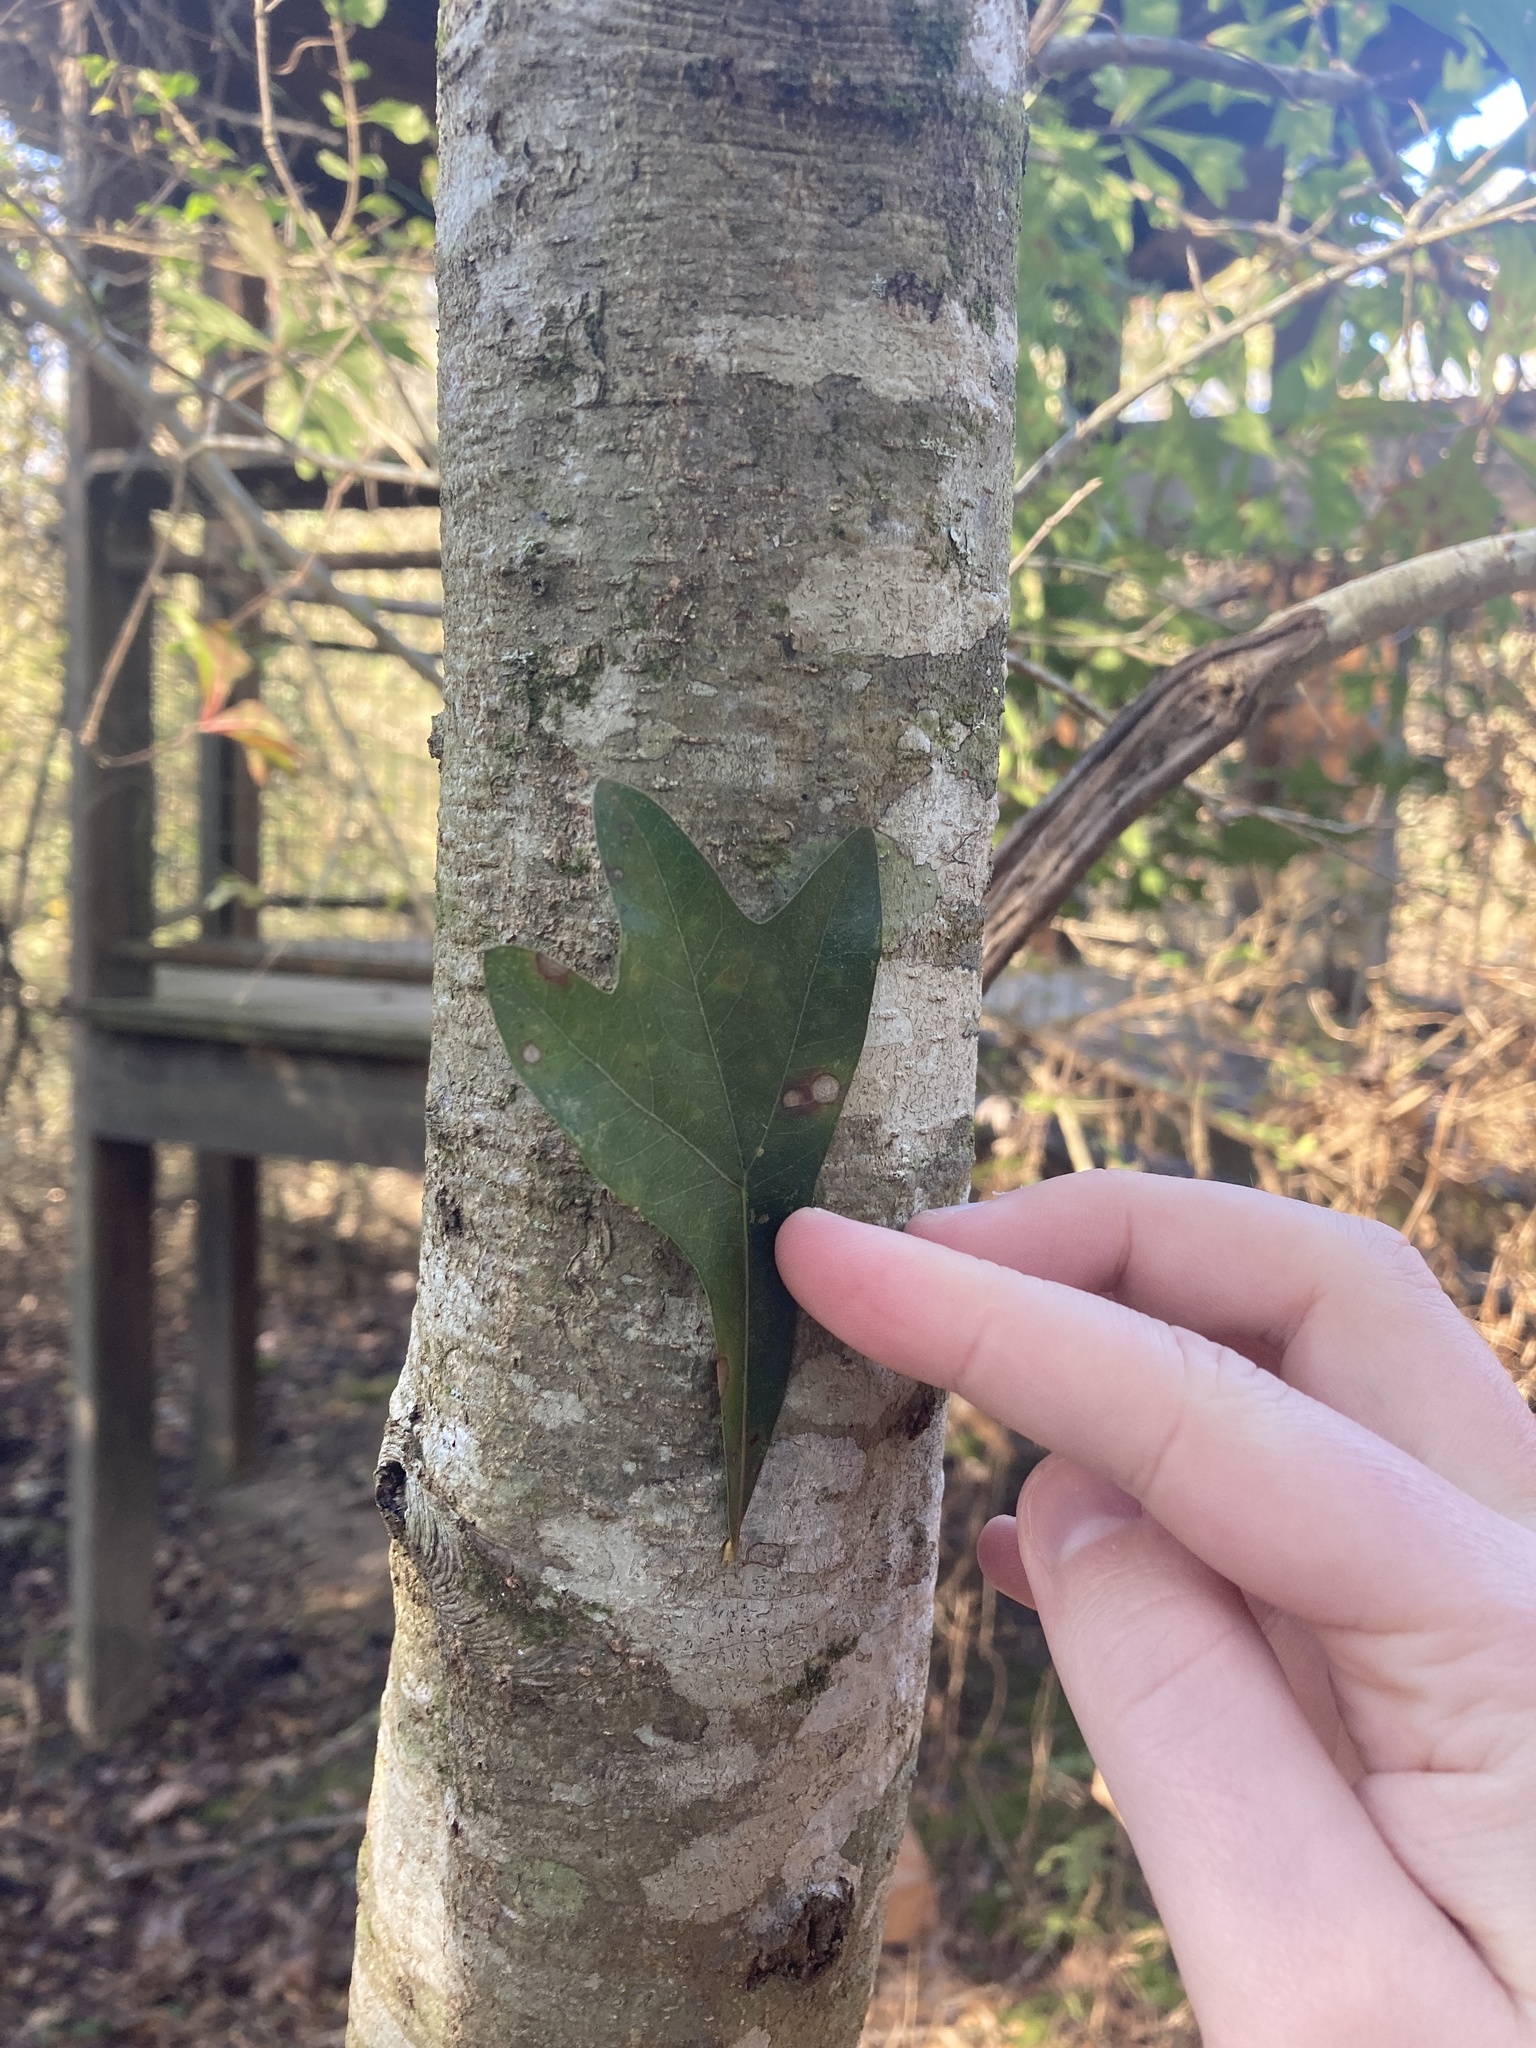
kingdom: Plantae
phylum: Tracheophyta
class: Magnoliopsida
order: Fagales
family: Fagaceae
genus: Quercus
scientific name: Quercus nigra
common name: Water oak
